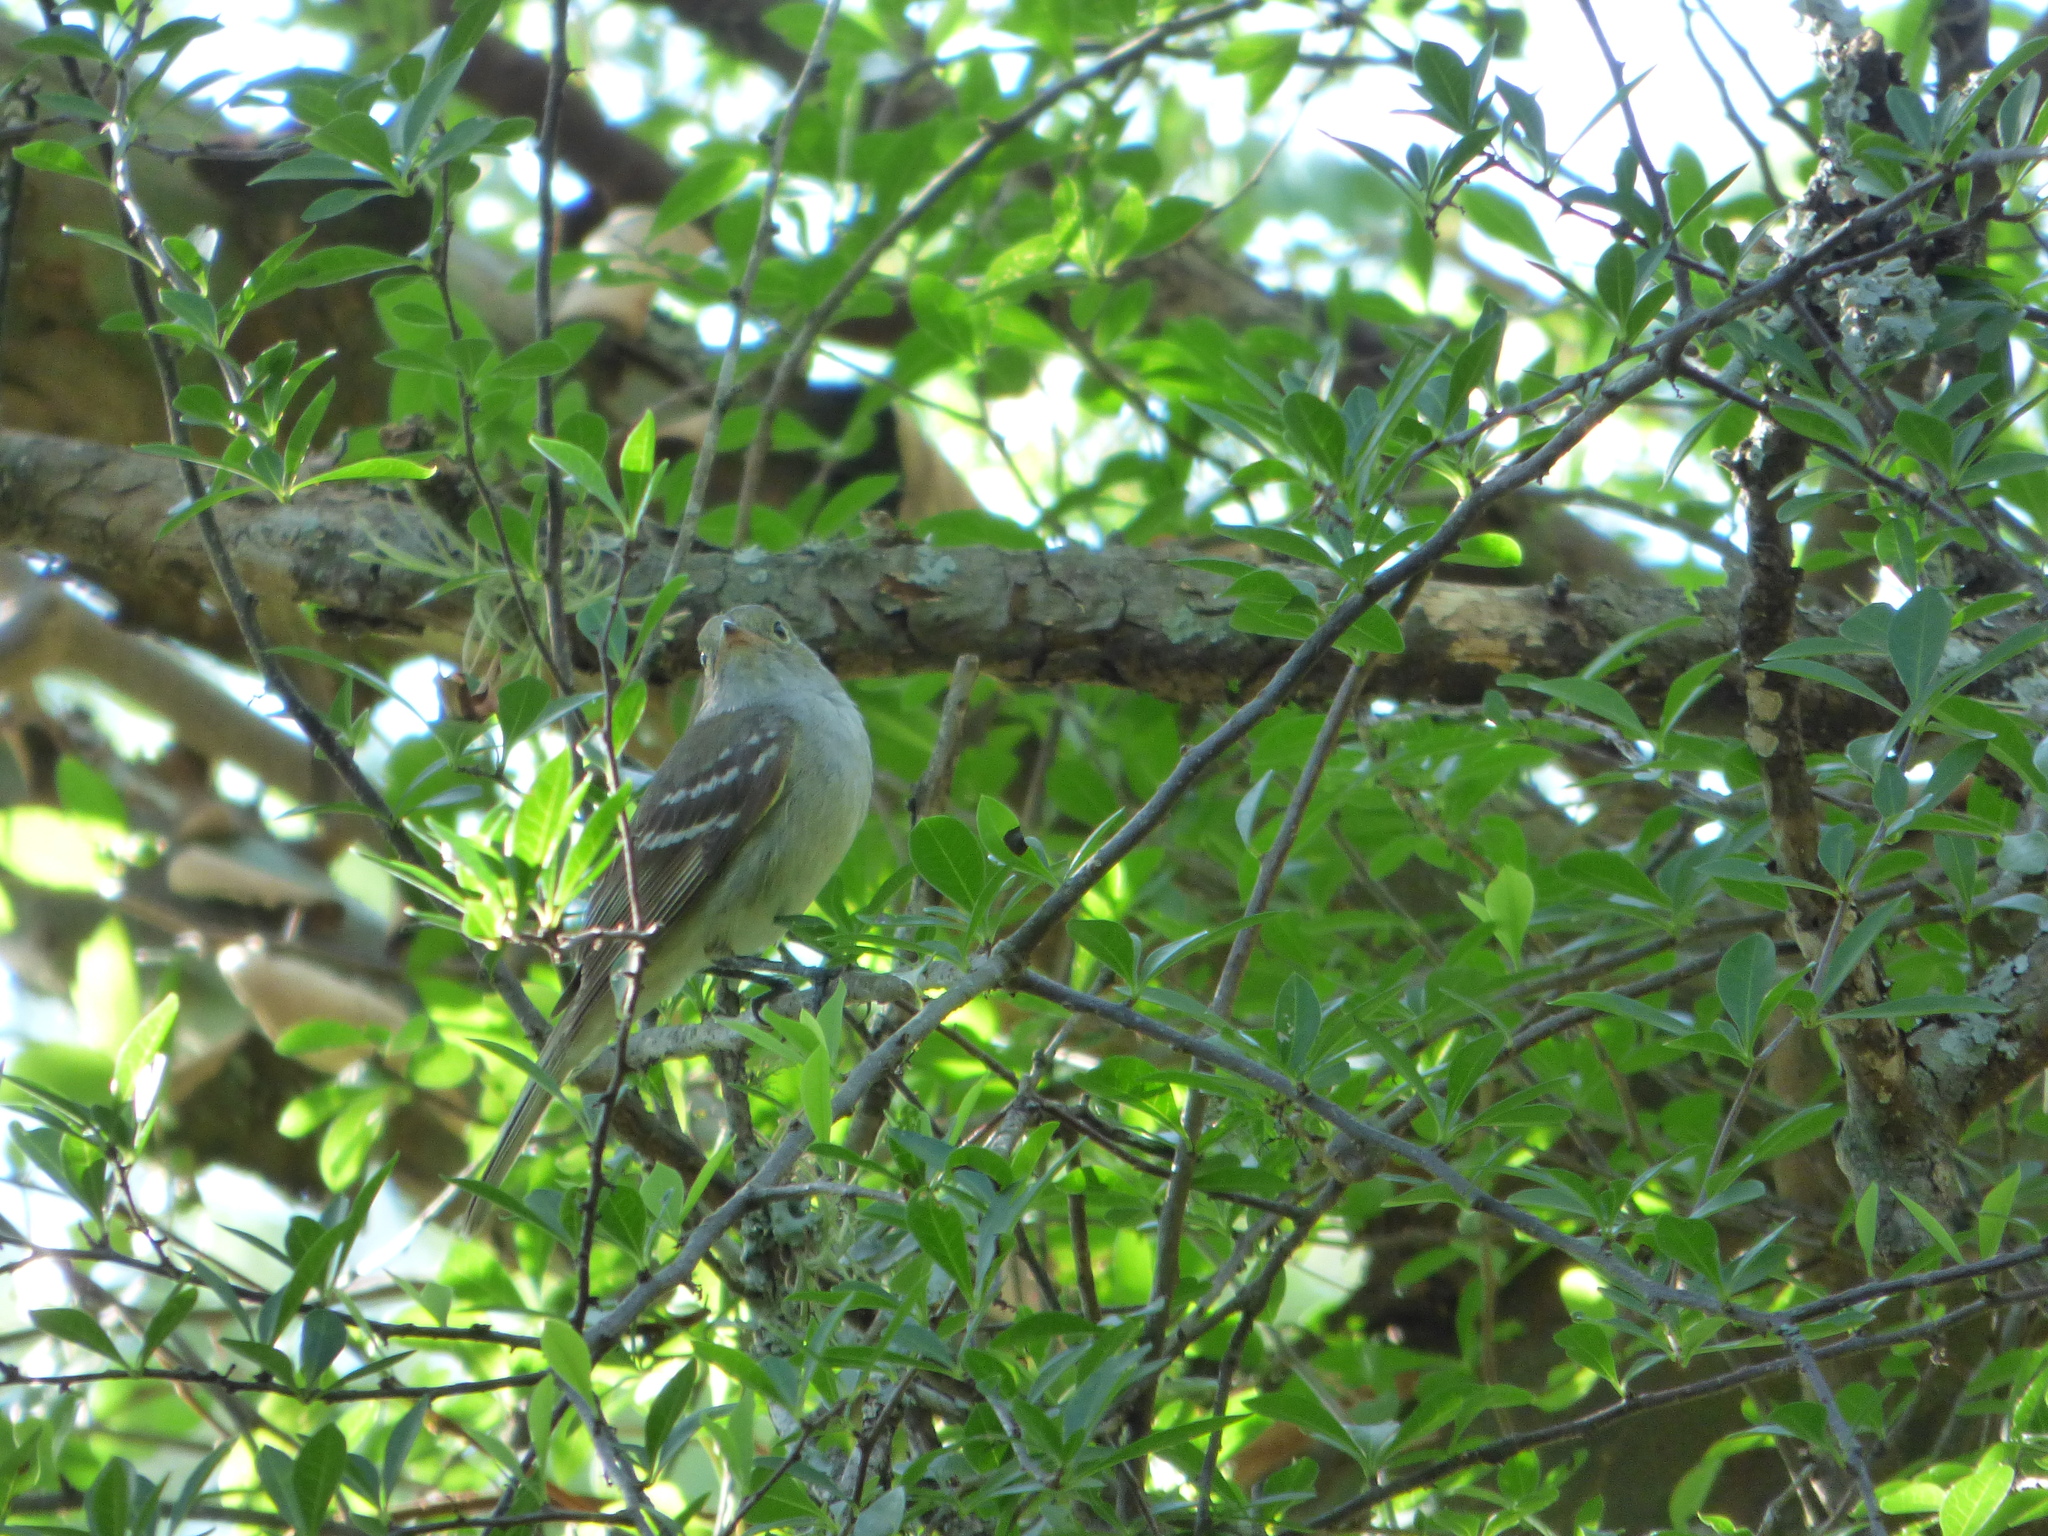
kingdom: Animalia
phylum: Chordata
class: Aves
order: Passeriformes
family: Tyrannidae
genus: Elaenia
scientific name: Elaenia parvirostris
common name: Small-billed elaenia
